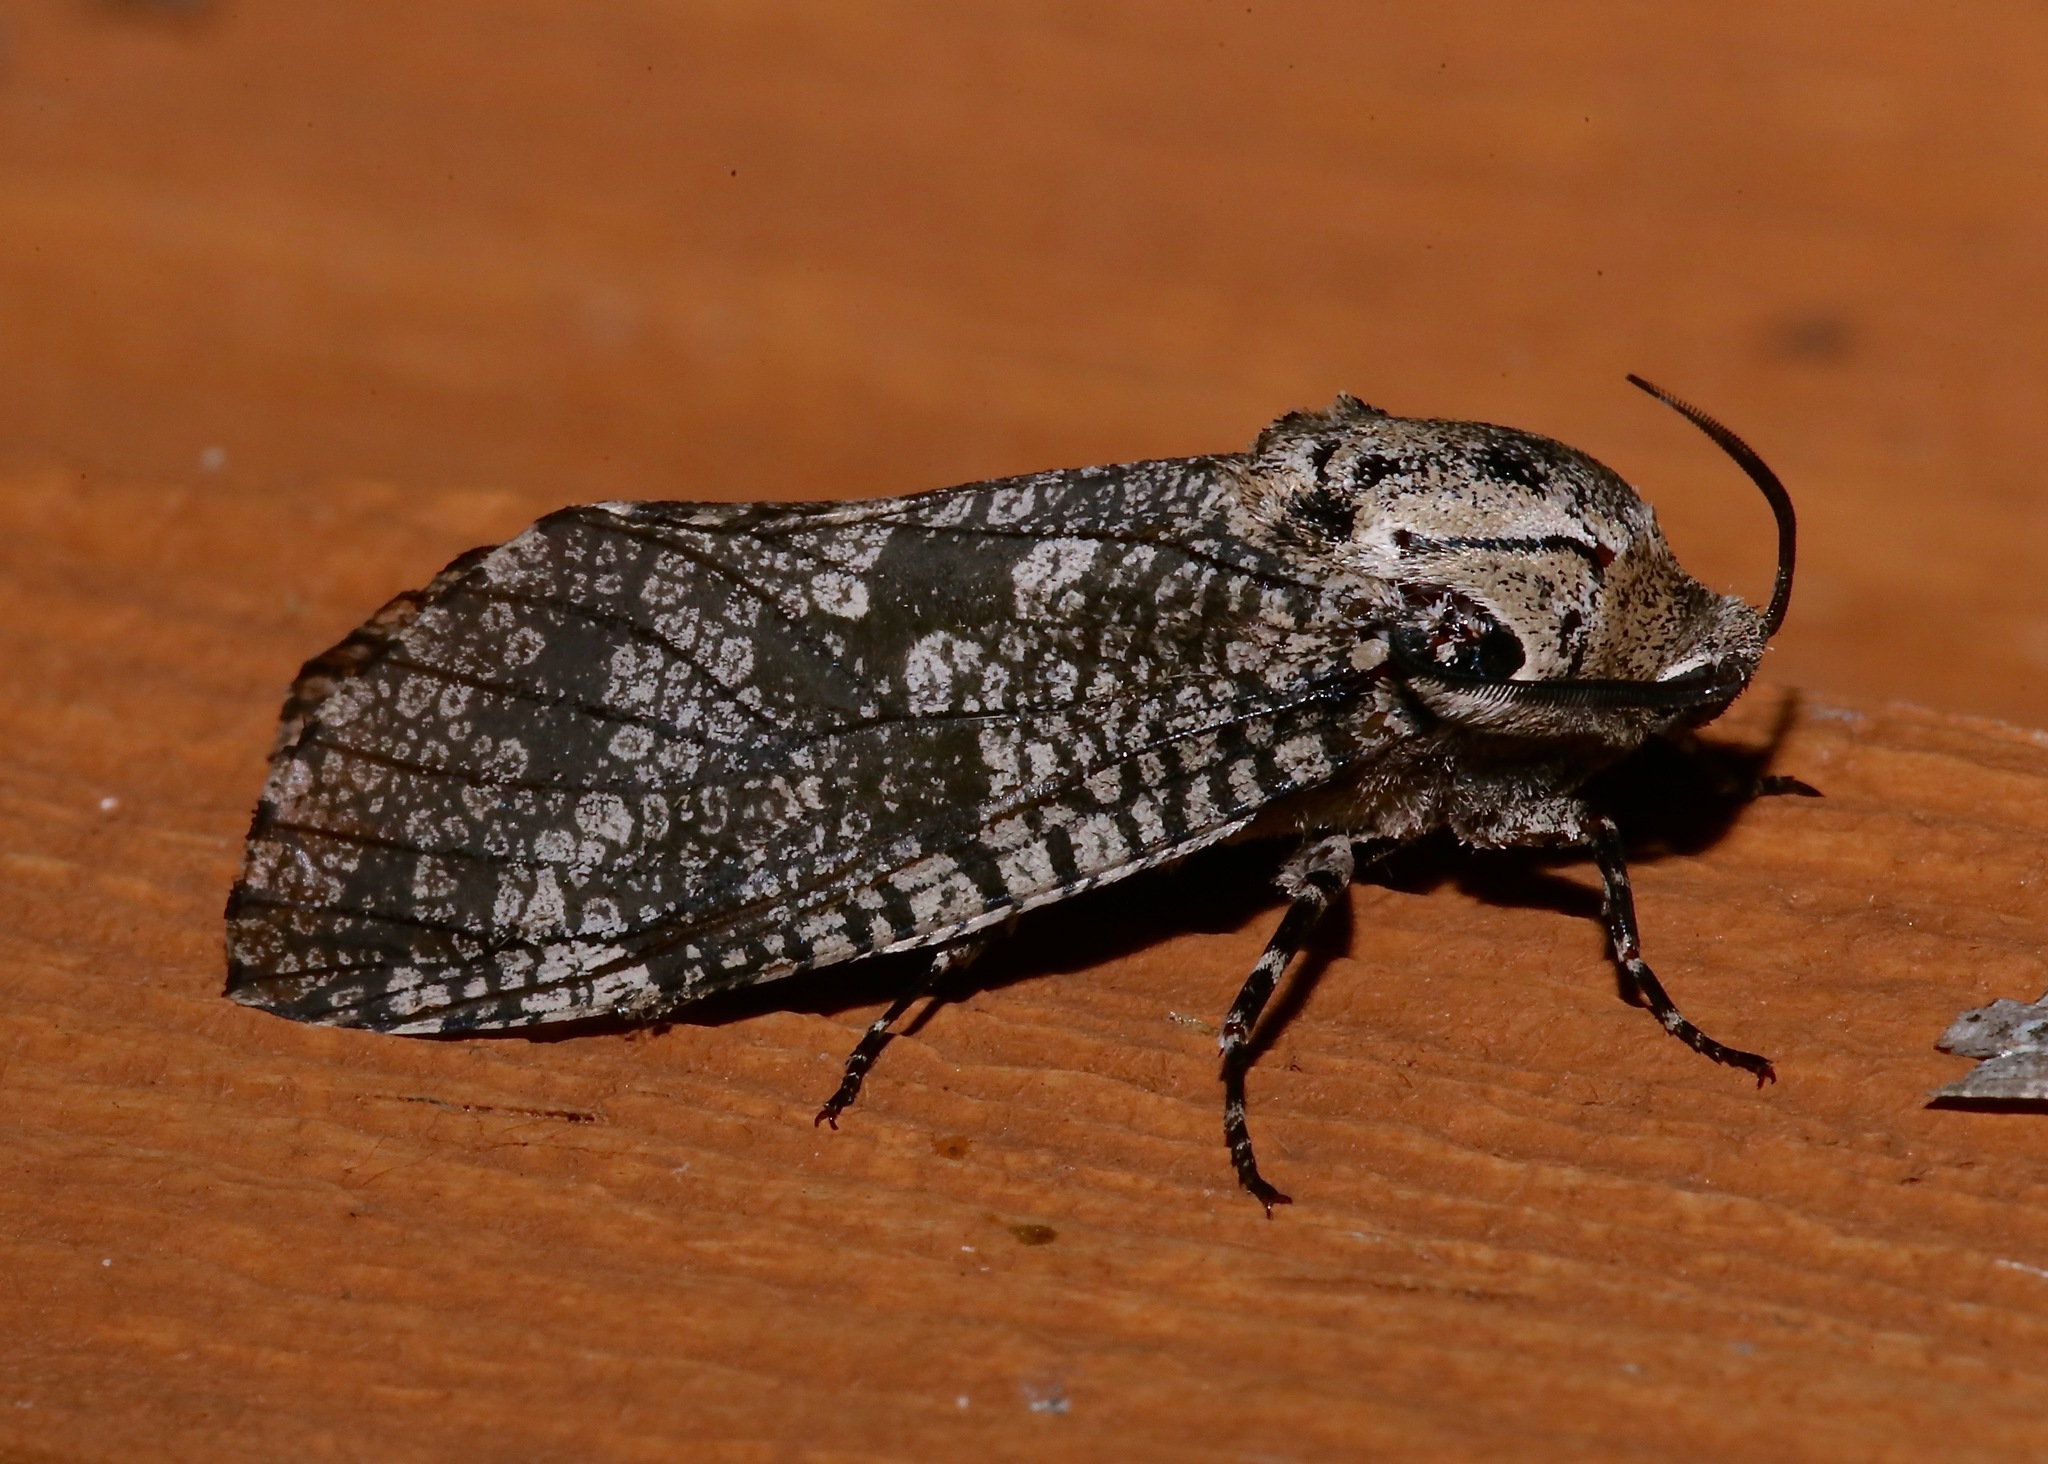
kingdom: Animalia
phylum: Arthropoda
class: Insecta
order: Lepidoptera
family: Cossidae
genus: Prionoxystus
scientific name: Prionoxystus robiniae
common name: Carpenterworm
